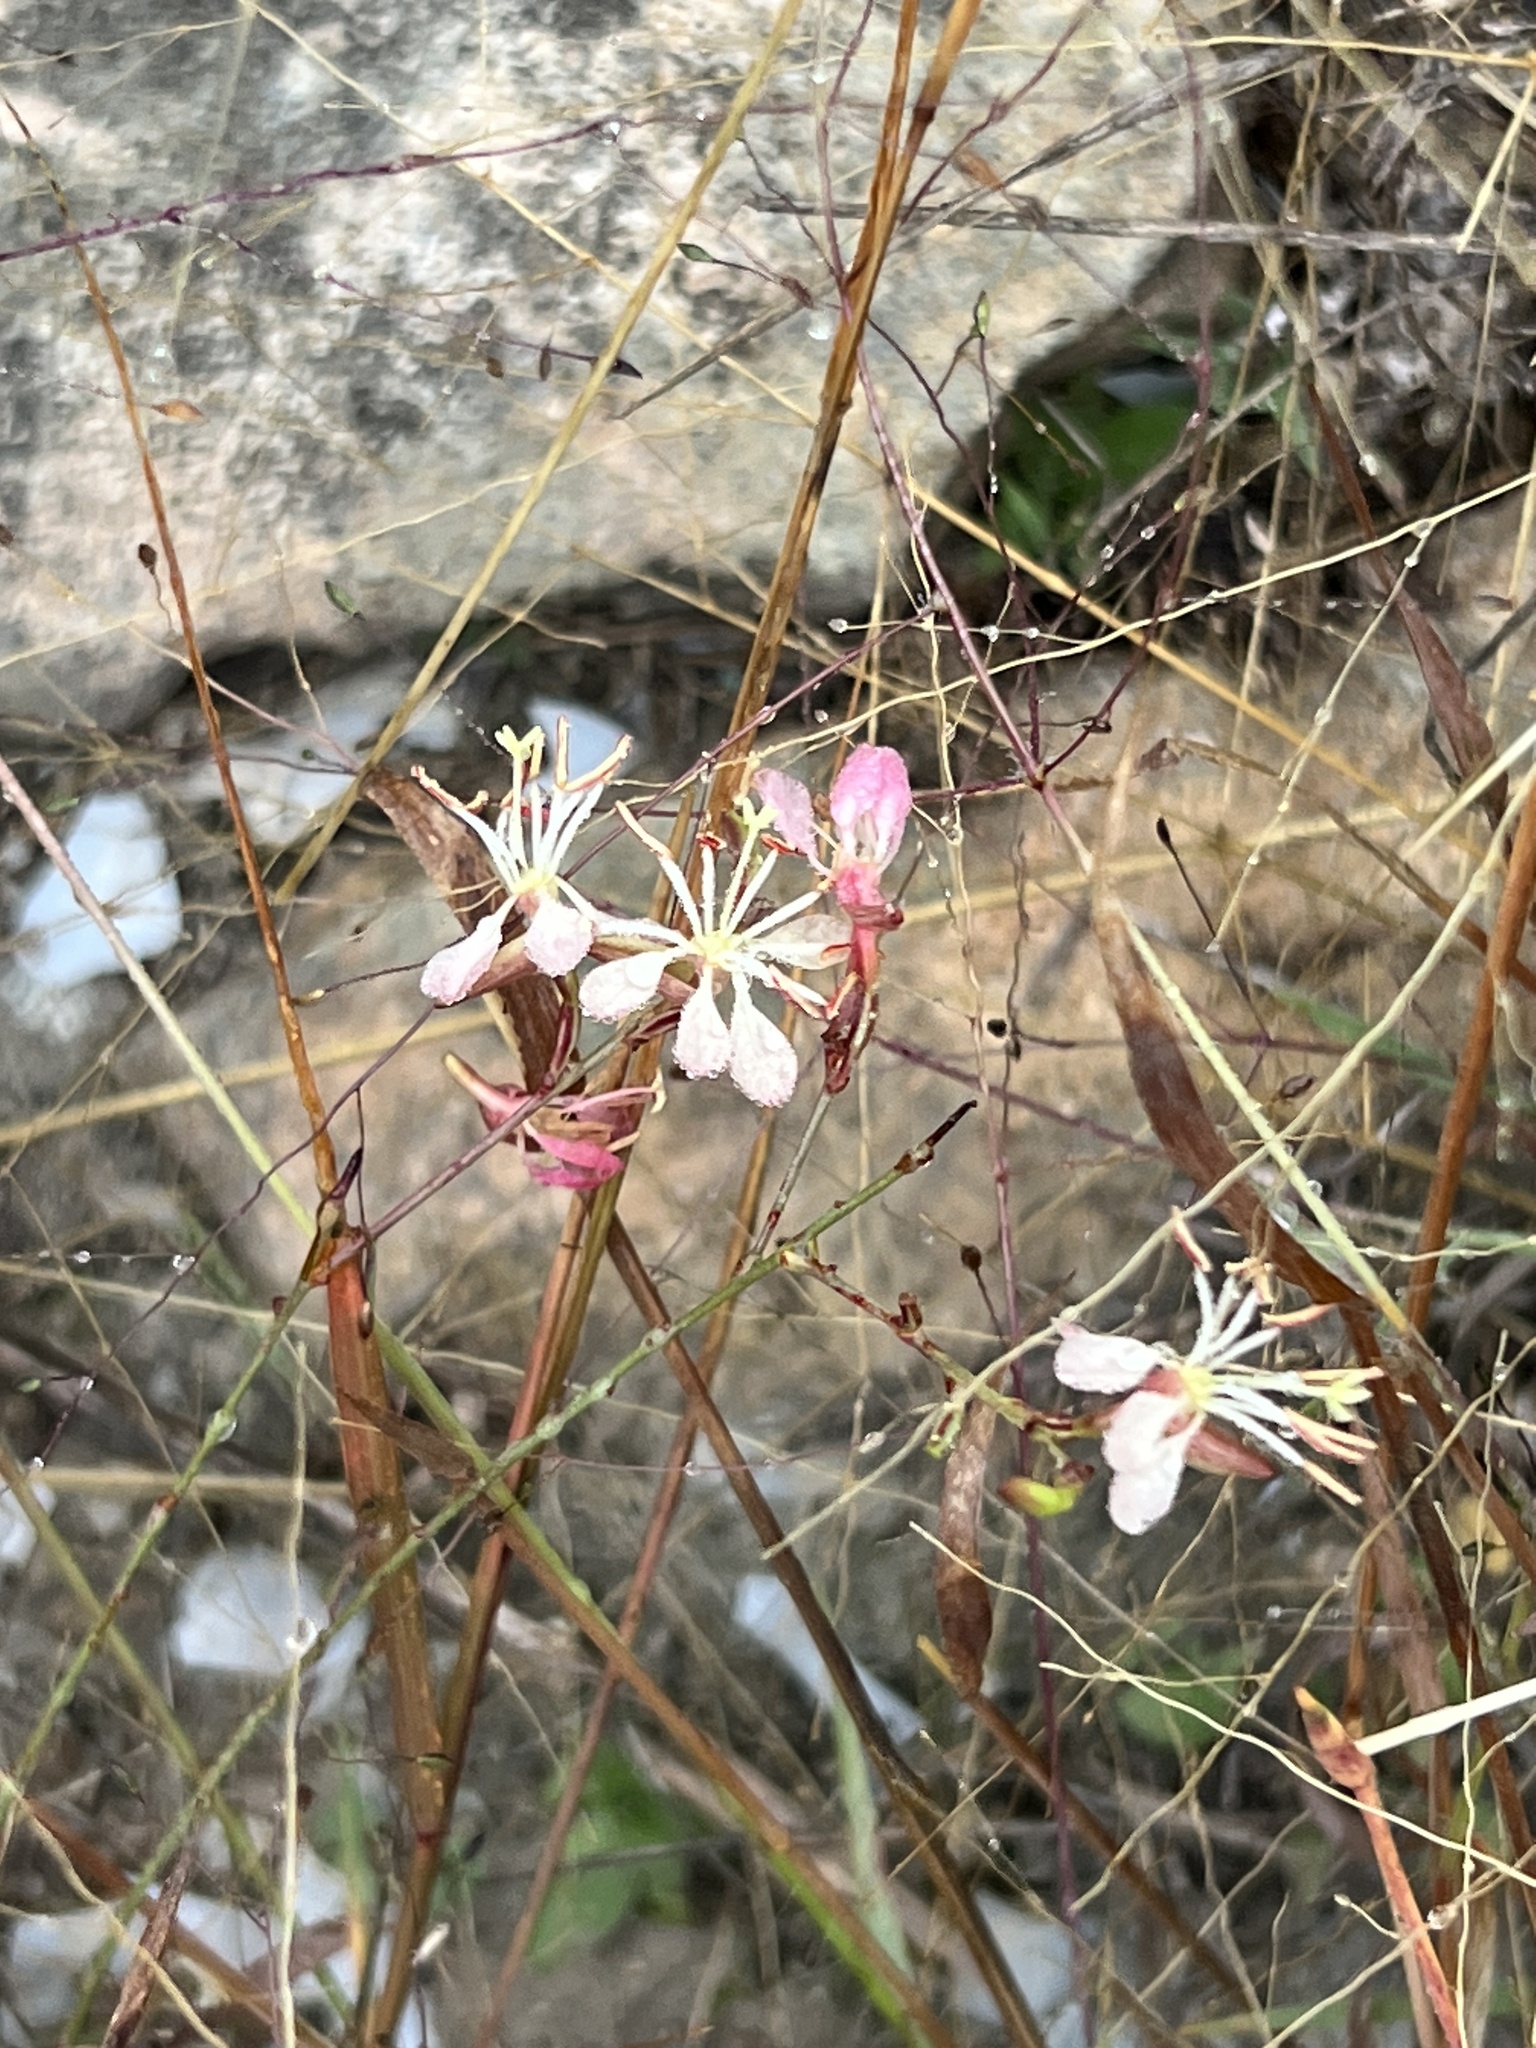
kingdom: Plantae
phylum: Tracheophyta
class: Magnoliopsida
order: Myrtales
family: Onagraceae
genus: Oenothera
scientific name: Oenothera suffrutescens
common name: Scarlet beeblossom
